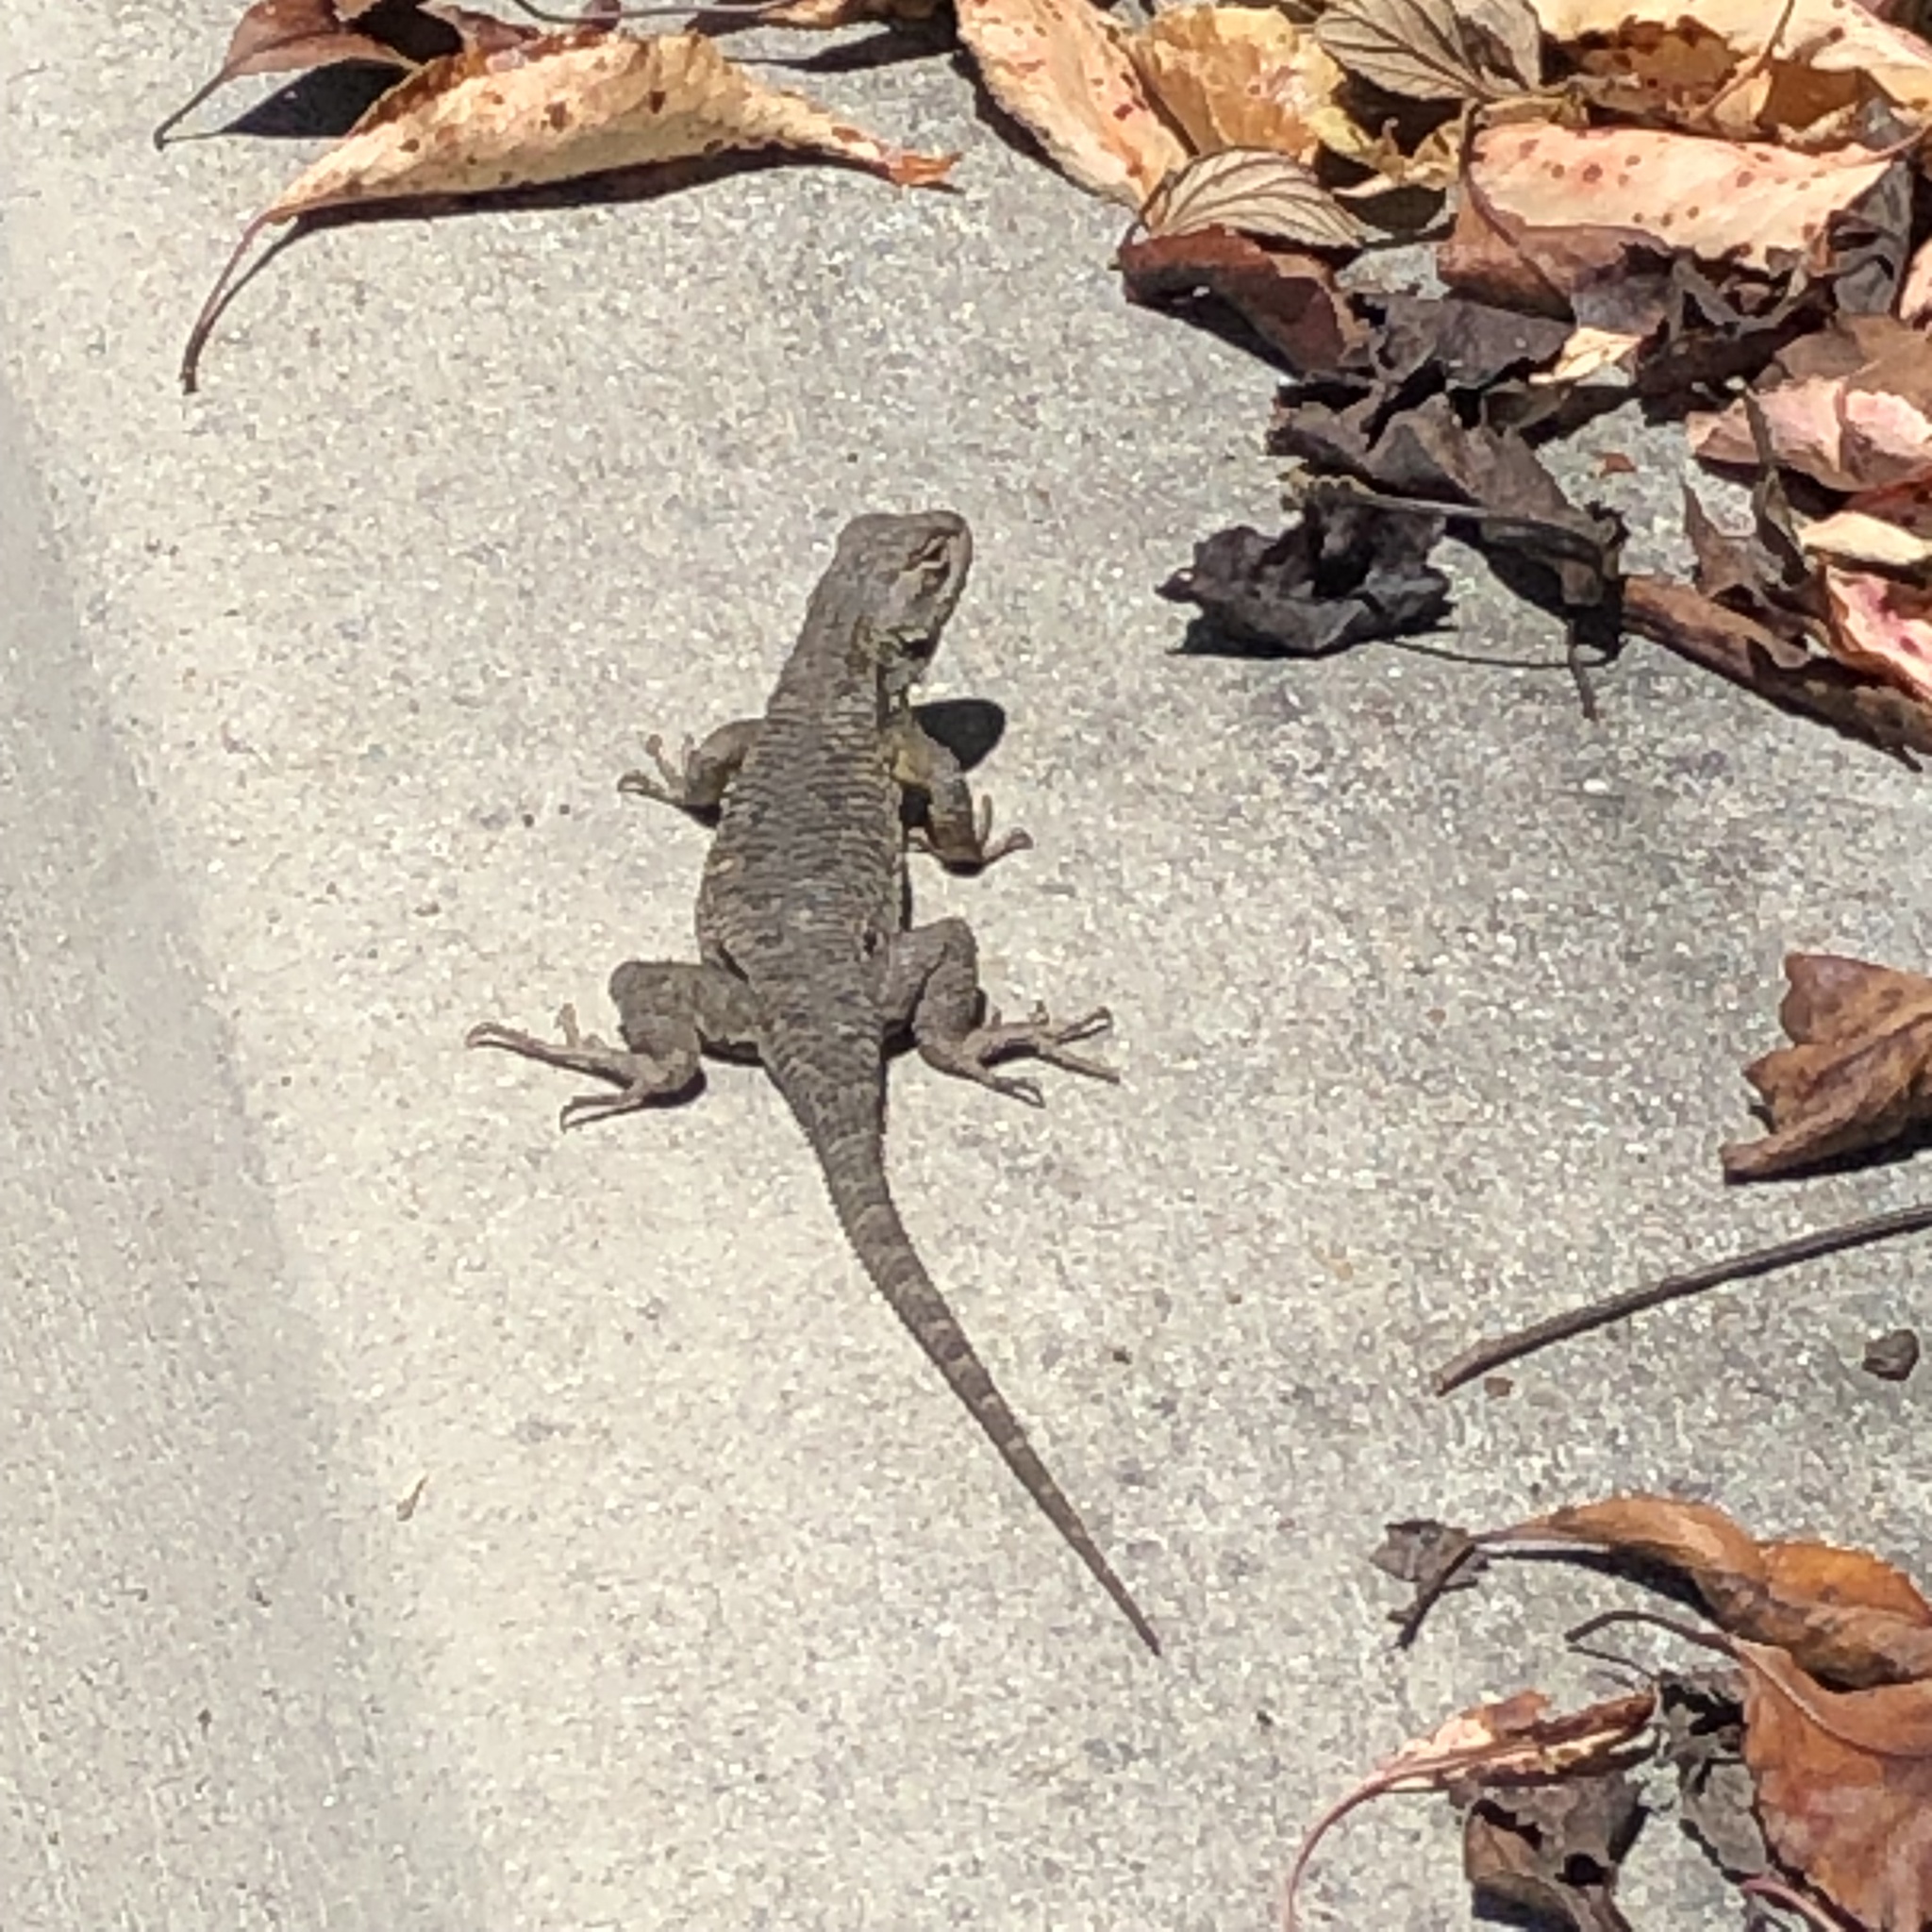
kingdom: Animalia
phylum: Chordata
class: Squamata
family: Phrynosomatidae
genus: Sceloporus
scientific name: Sceloporus occidentalis
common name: Western fence lizard
